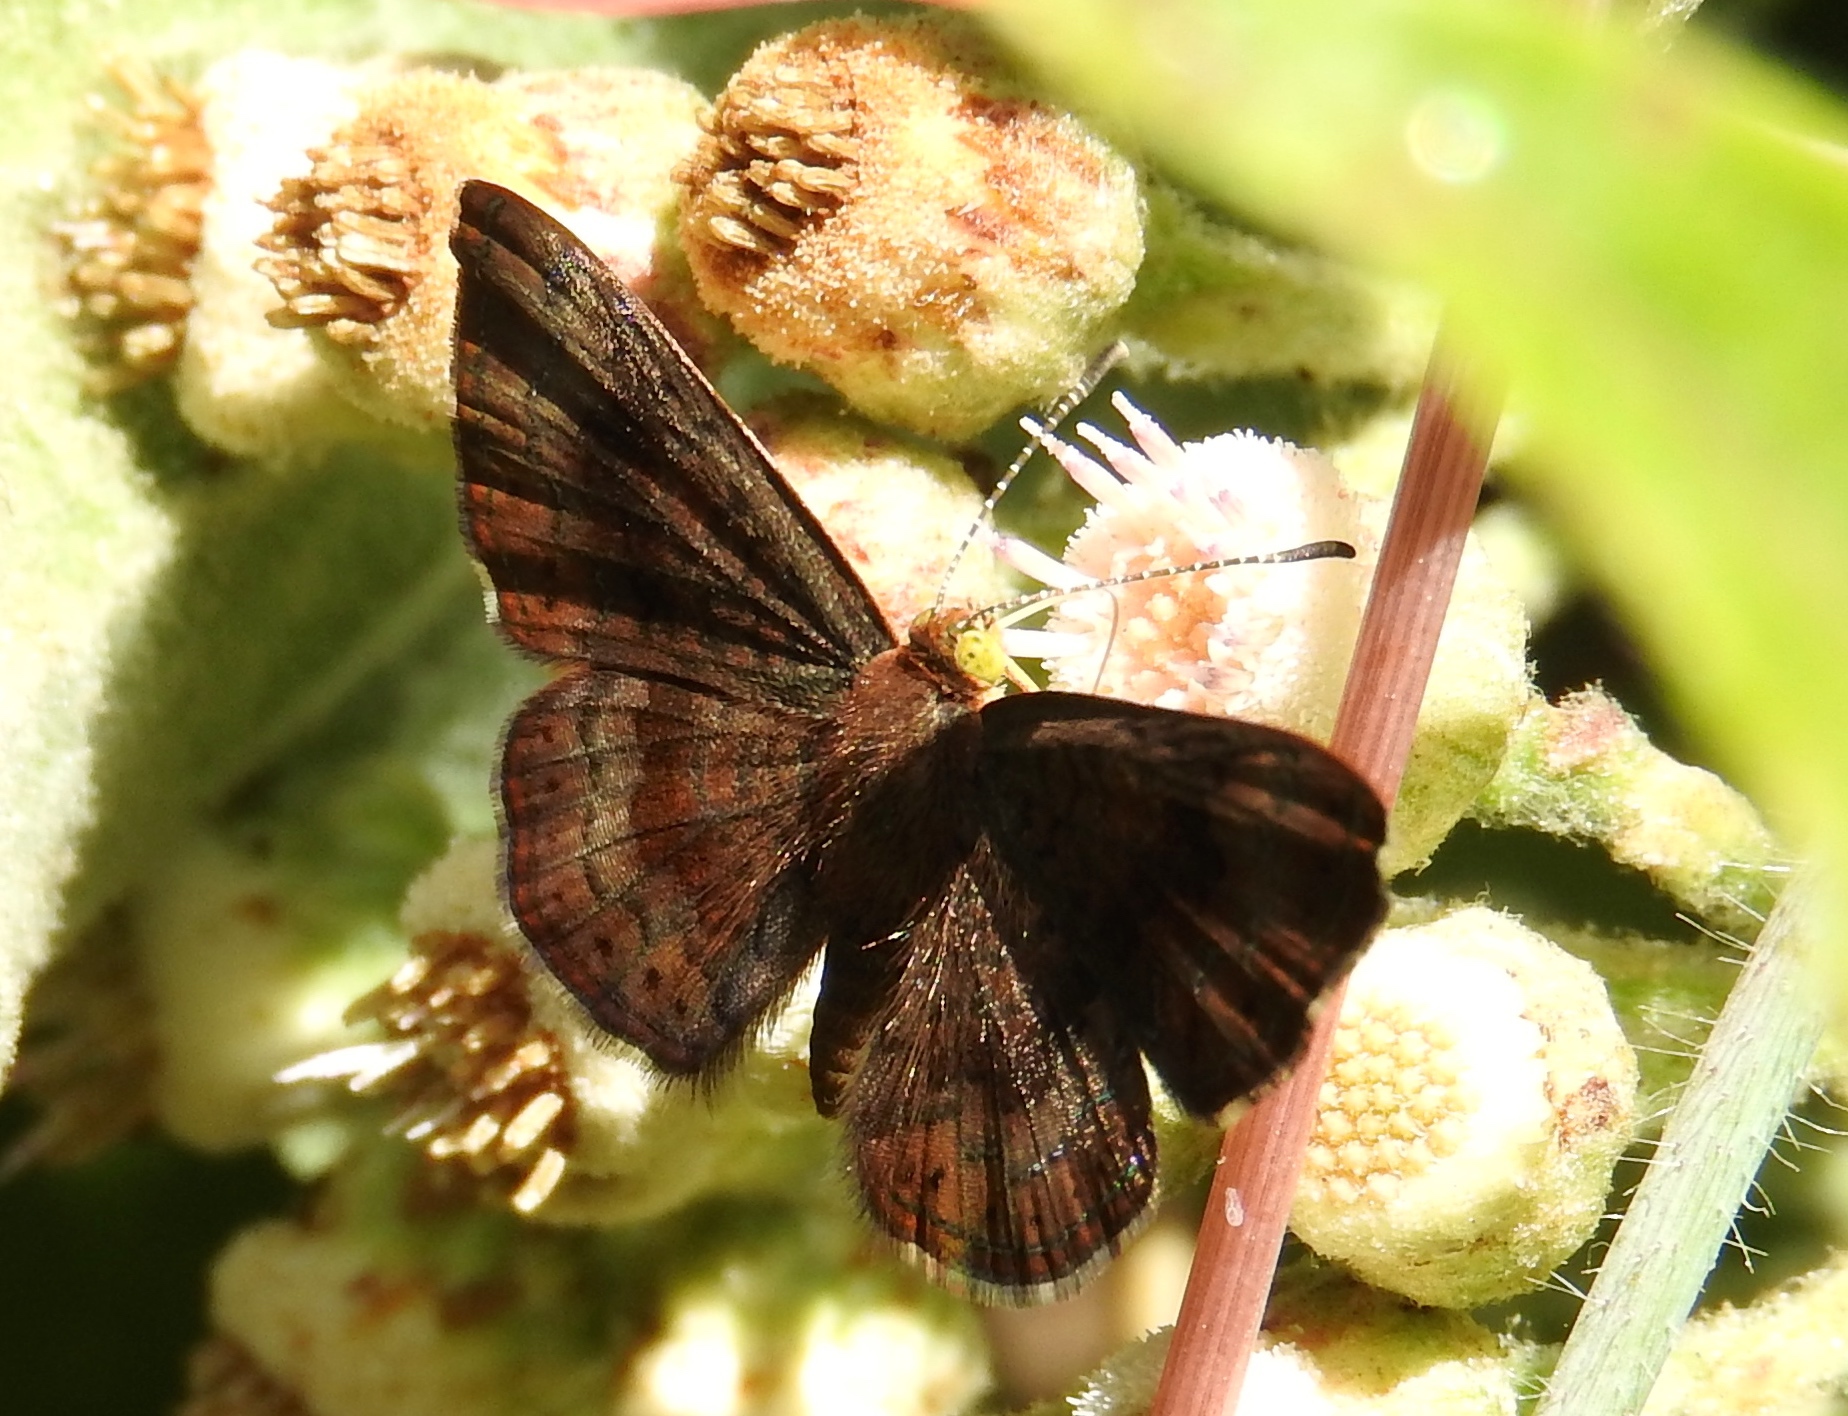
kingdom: Animalia
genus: Calephelis
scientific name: Calephelis
